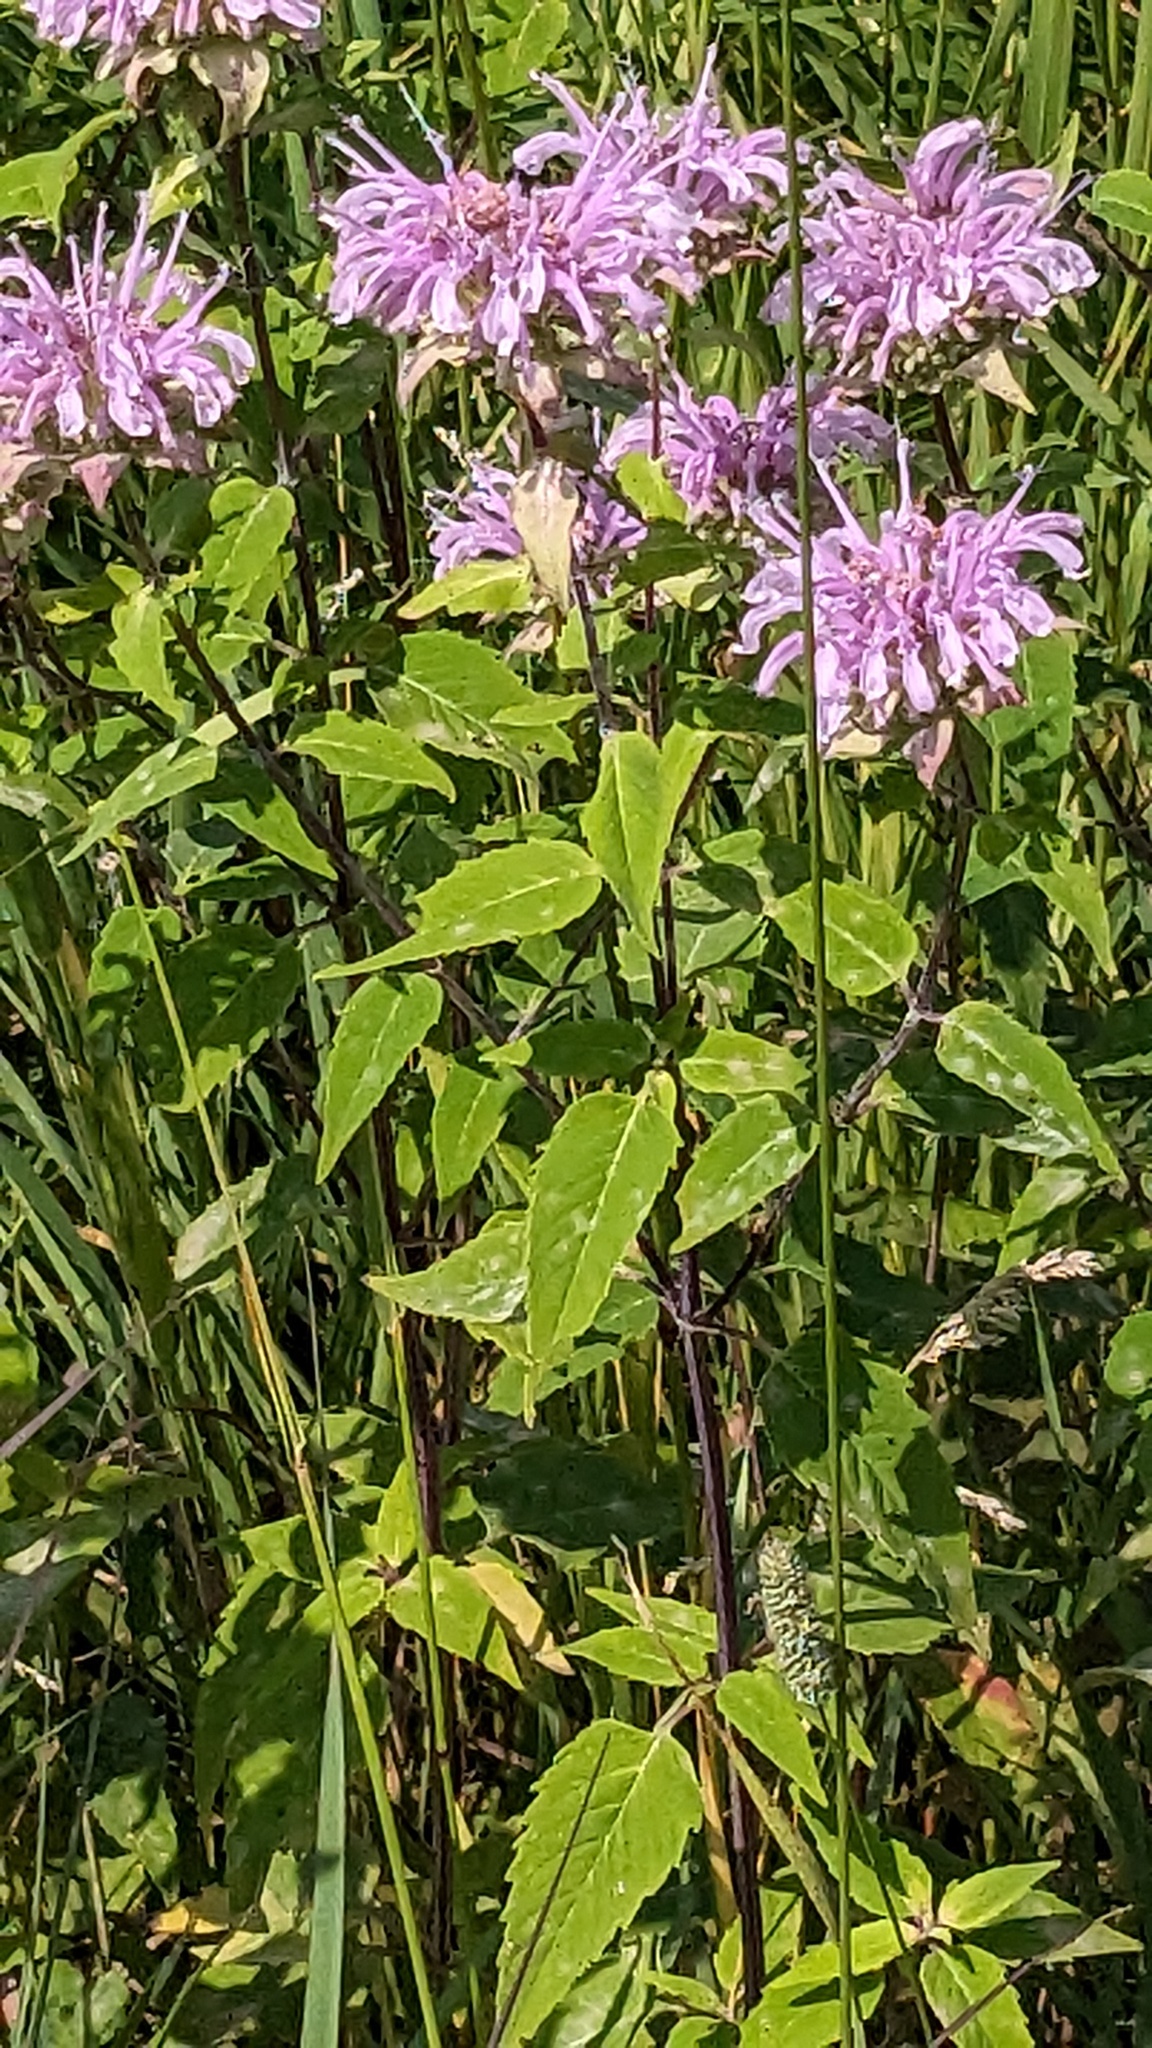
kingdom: Plantae
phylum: Tracheophyta
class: Magnoliopsida
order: Lamiales
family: Lamiaceae
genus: Monarda
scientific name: Monarda fistulosa
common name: Purple beebalm
